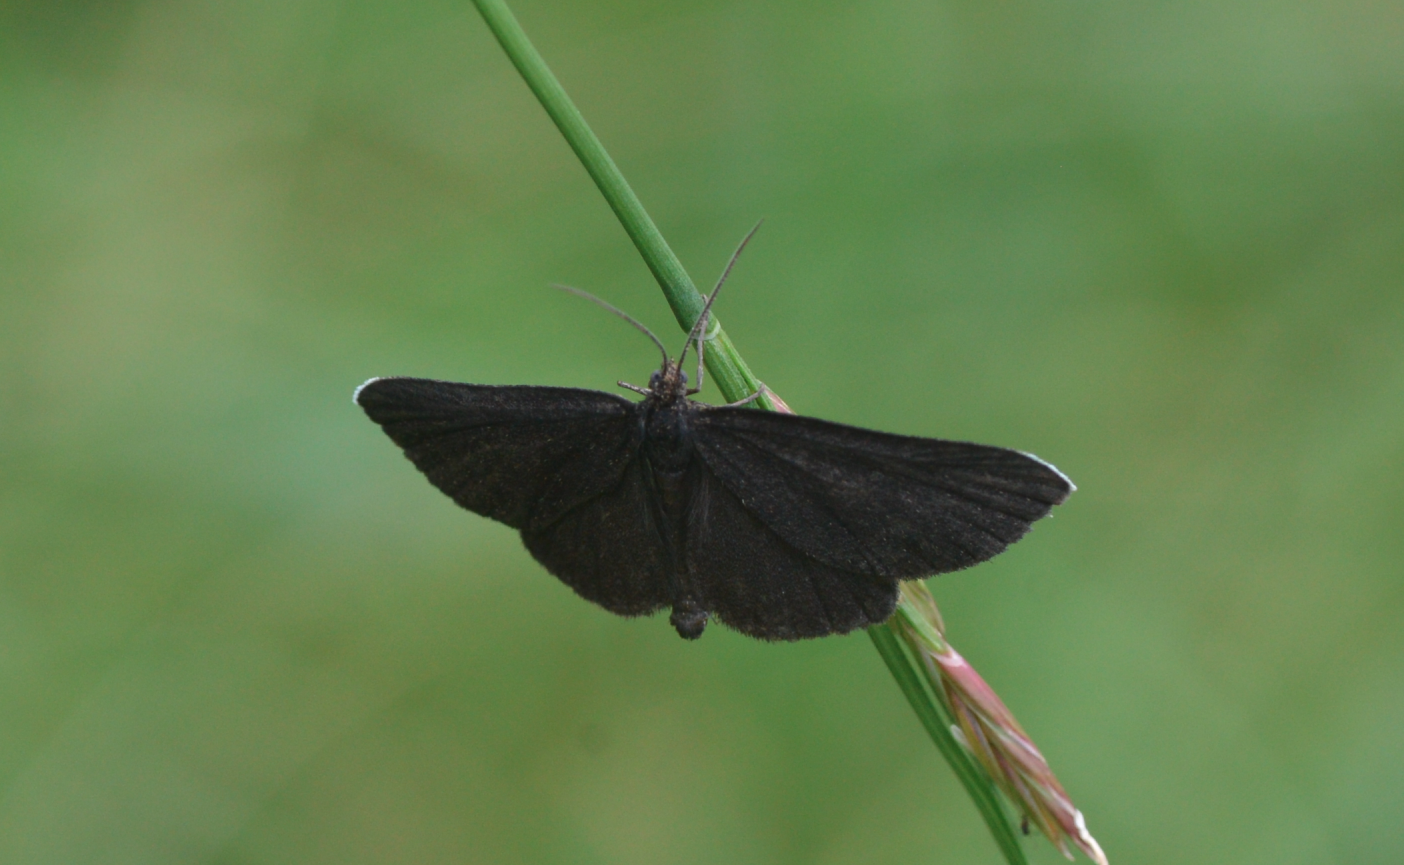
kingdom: Animalia
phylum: Arthropoda
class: Insecta
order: Lepidoptera
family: Geometridae
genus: Odezia
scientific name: Odezia atrata
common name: Chimney sweeper
